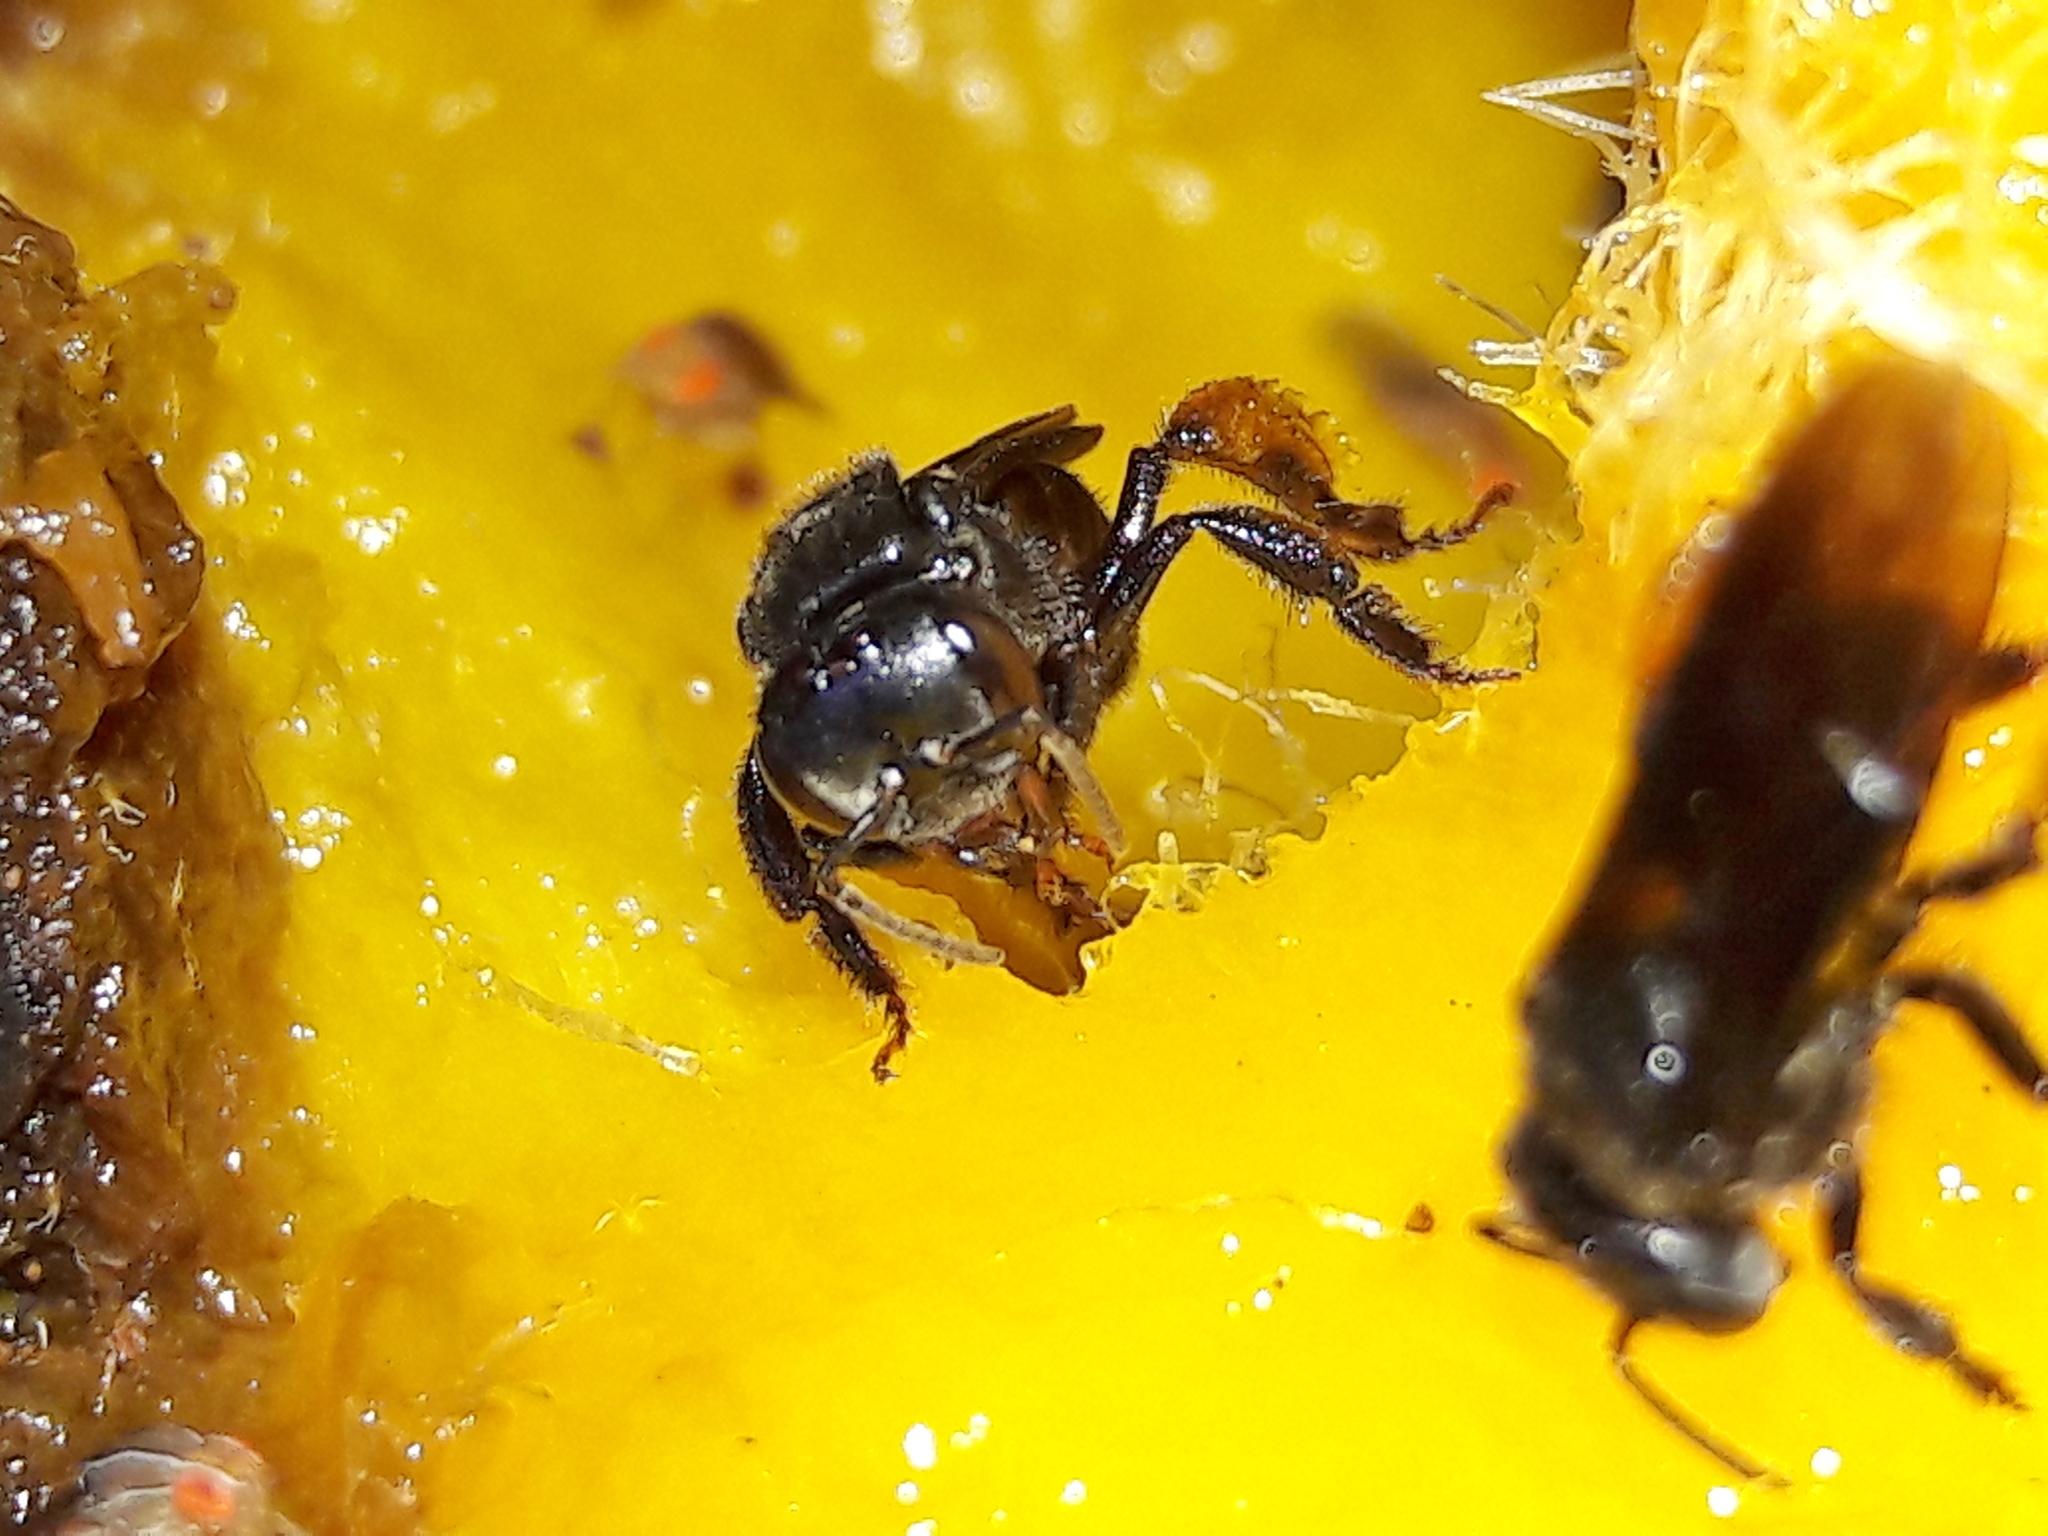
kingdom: Animalia
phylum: Arthropoda
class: Insecta
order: Hymenoptera
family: Apidae
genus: Trigona
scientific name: Trigona spinipes
